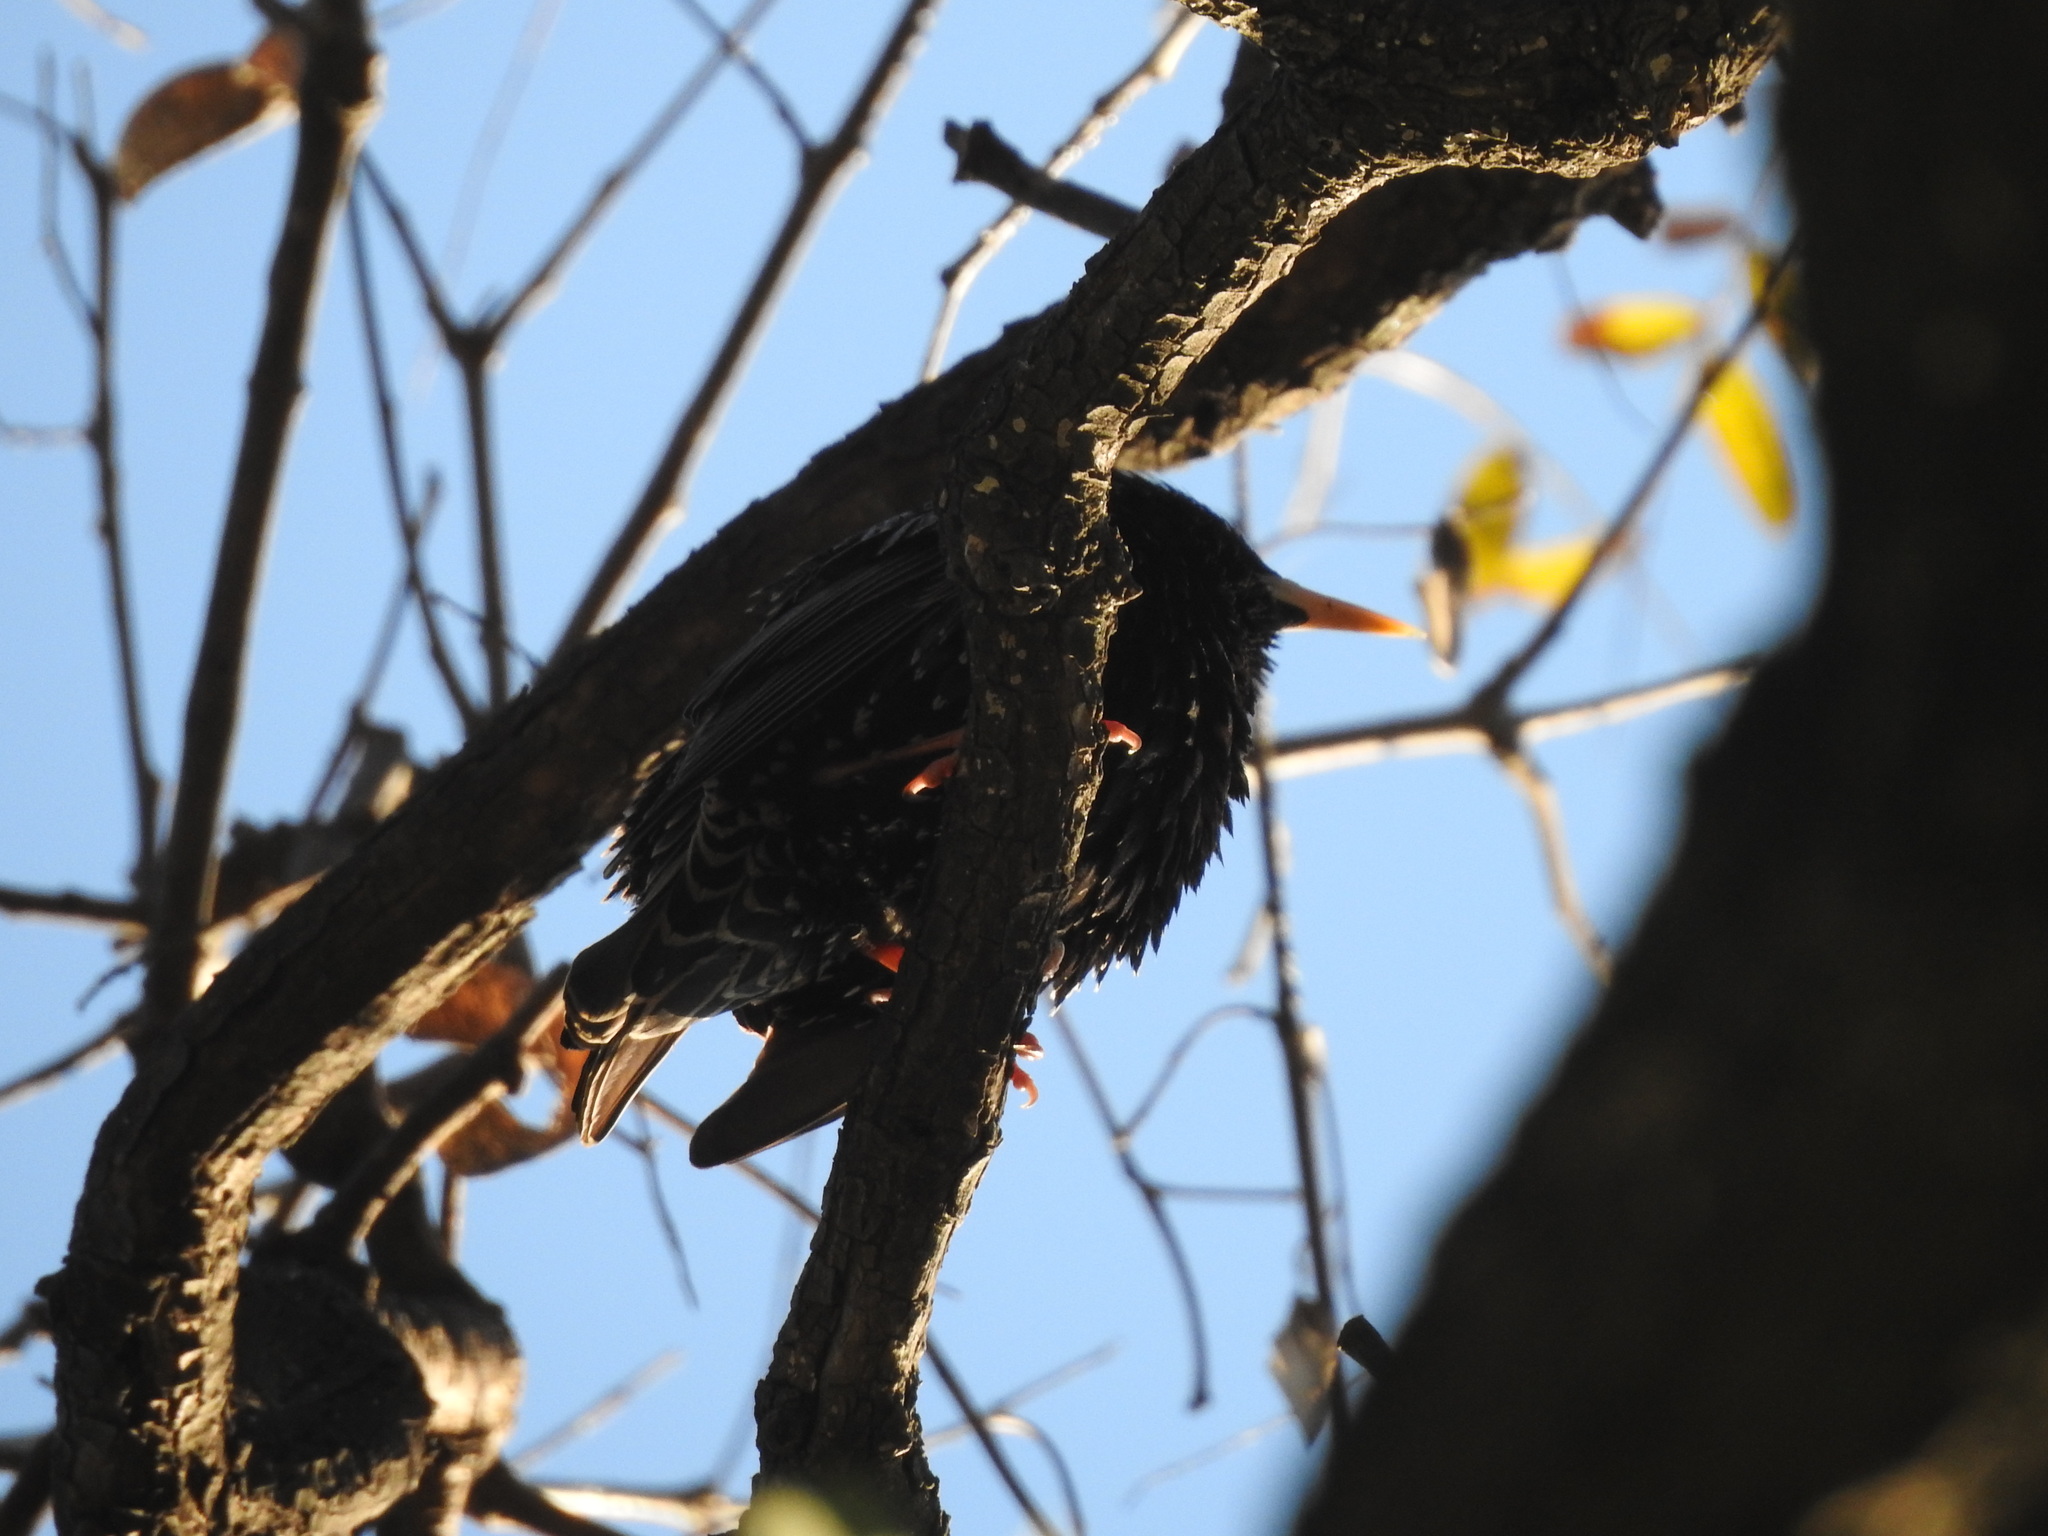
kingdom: Animalia
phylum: Chordata
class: Aves
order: Passeriformes
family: Sturnidae
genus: Sturnus
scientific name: Sturnus vulgaris
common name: Common starling
